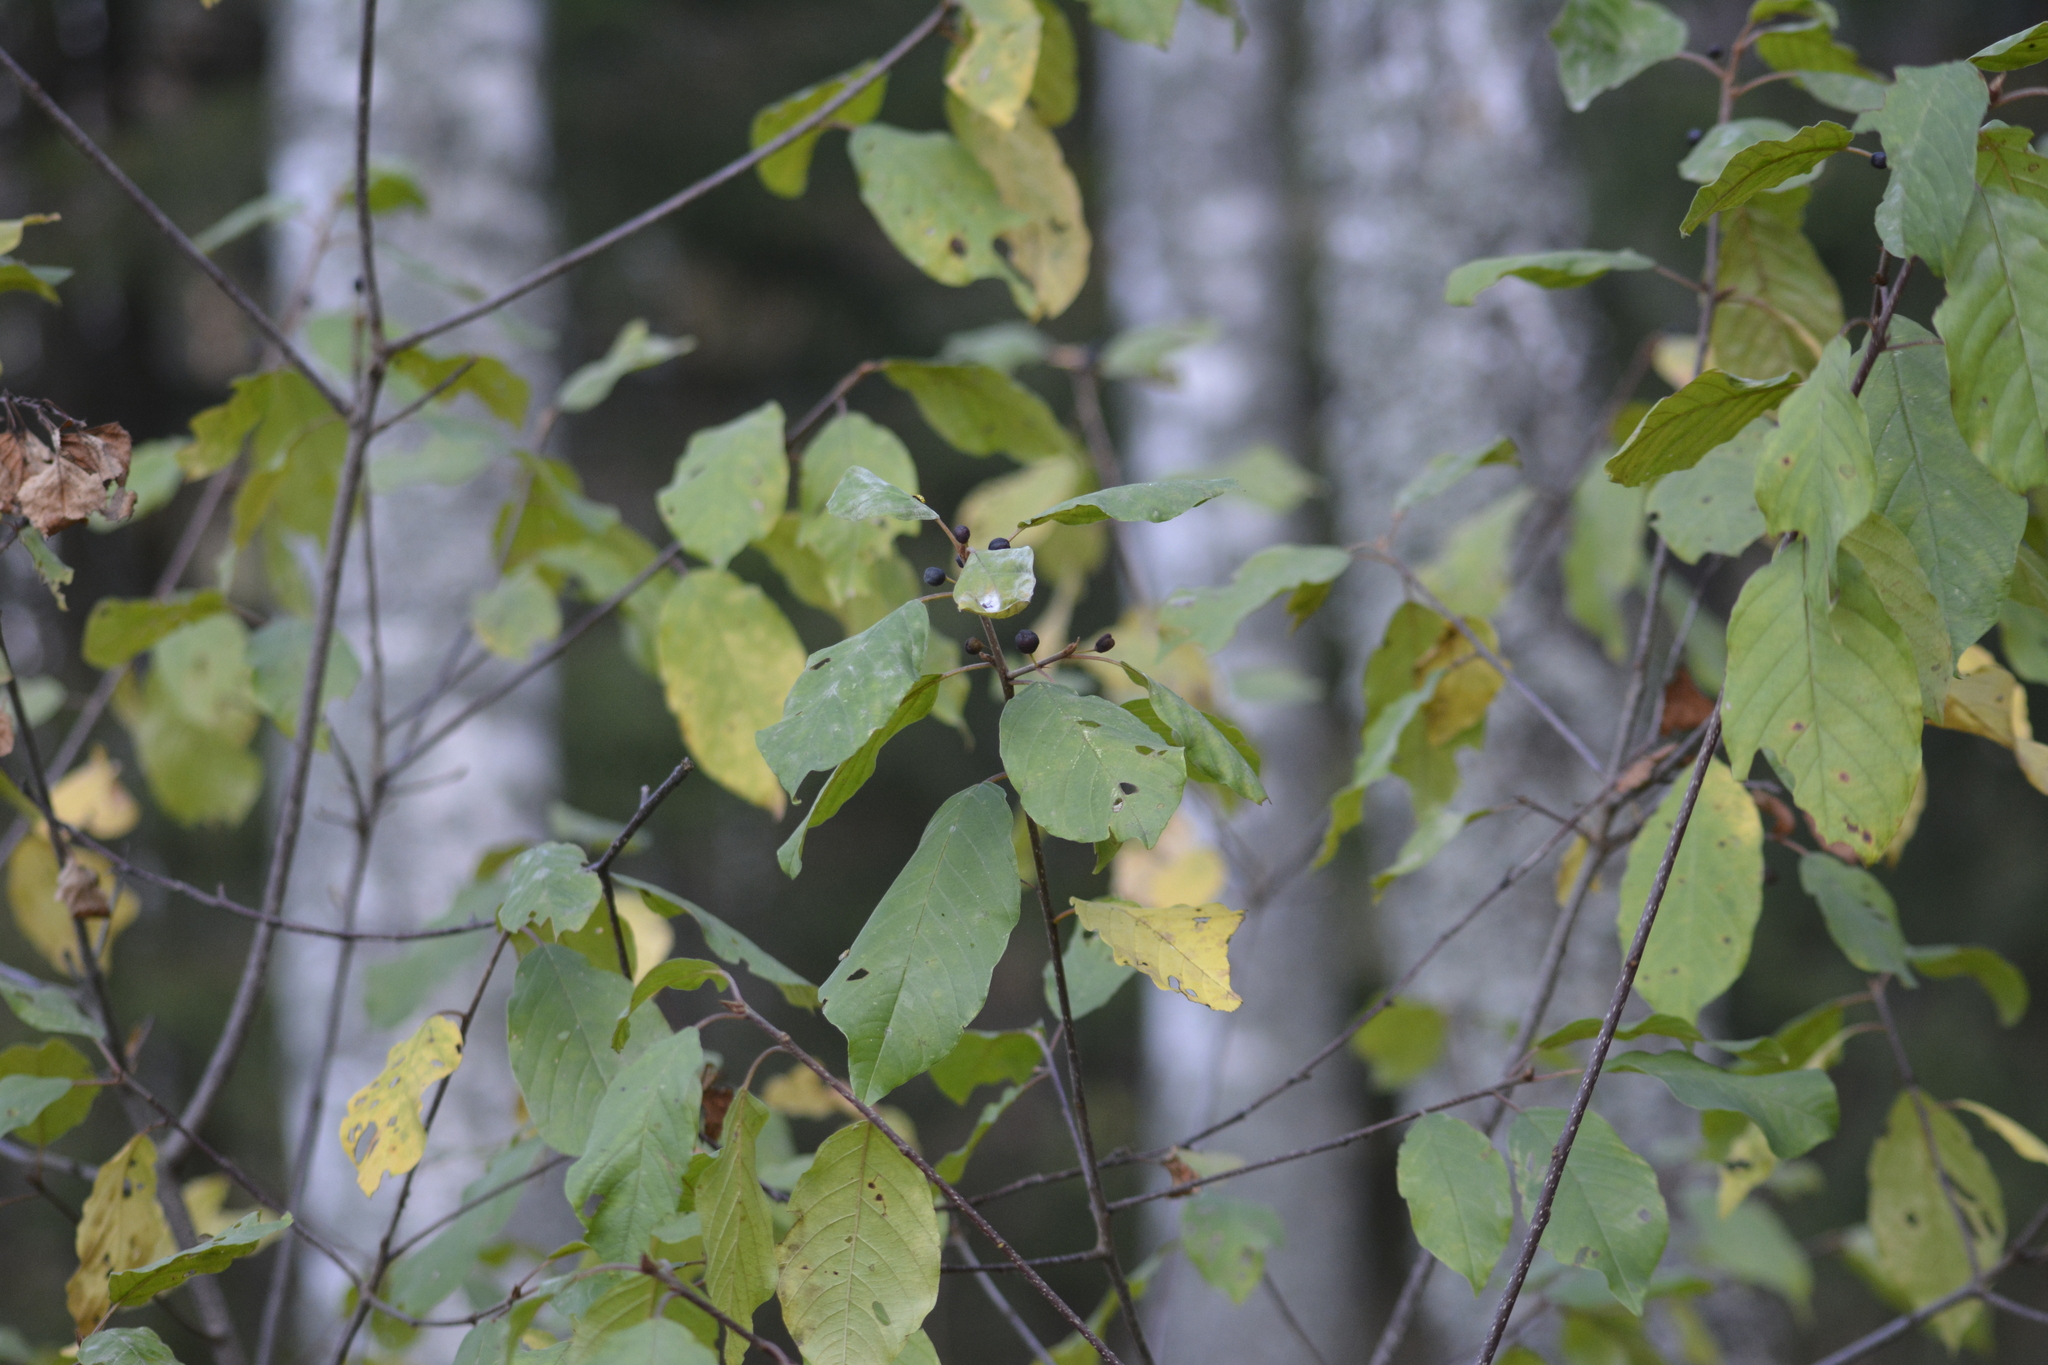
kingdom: Plantae
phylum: Tracheophyta
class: Magnoliopsida
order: Rosales
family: Rhamnaceae
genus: Frangula
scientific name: Frangula alnus
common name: Alder buckthorn
